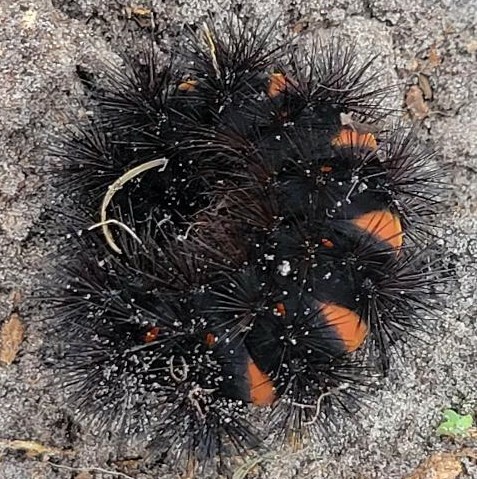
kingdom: Animalia
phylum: Arthropoda
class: Insecta
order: Lepidoptera
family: Erebidae
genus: Hypercompe
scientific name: Hypercompe scribonia
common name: Giant leopard moth
